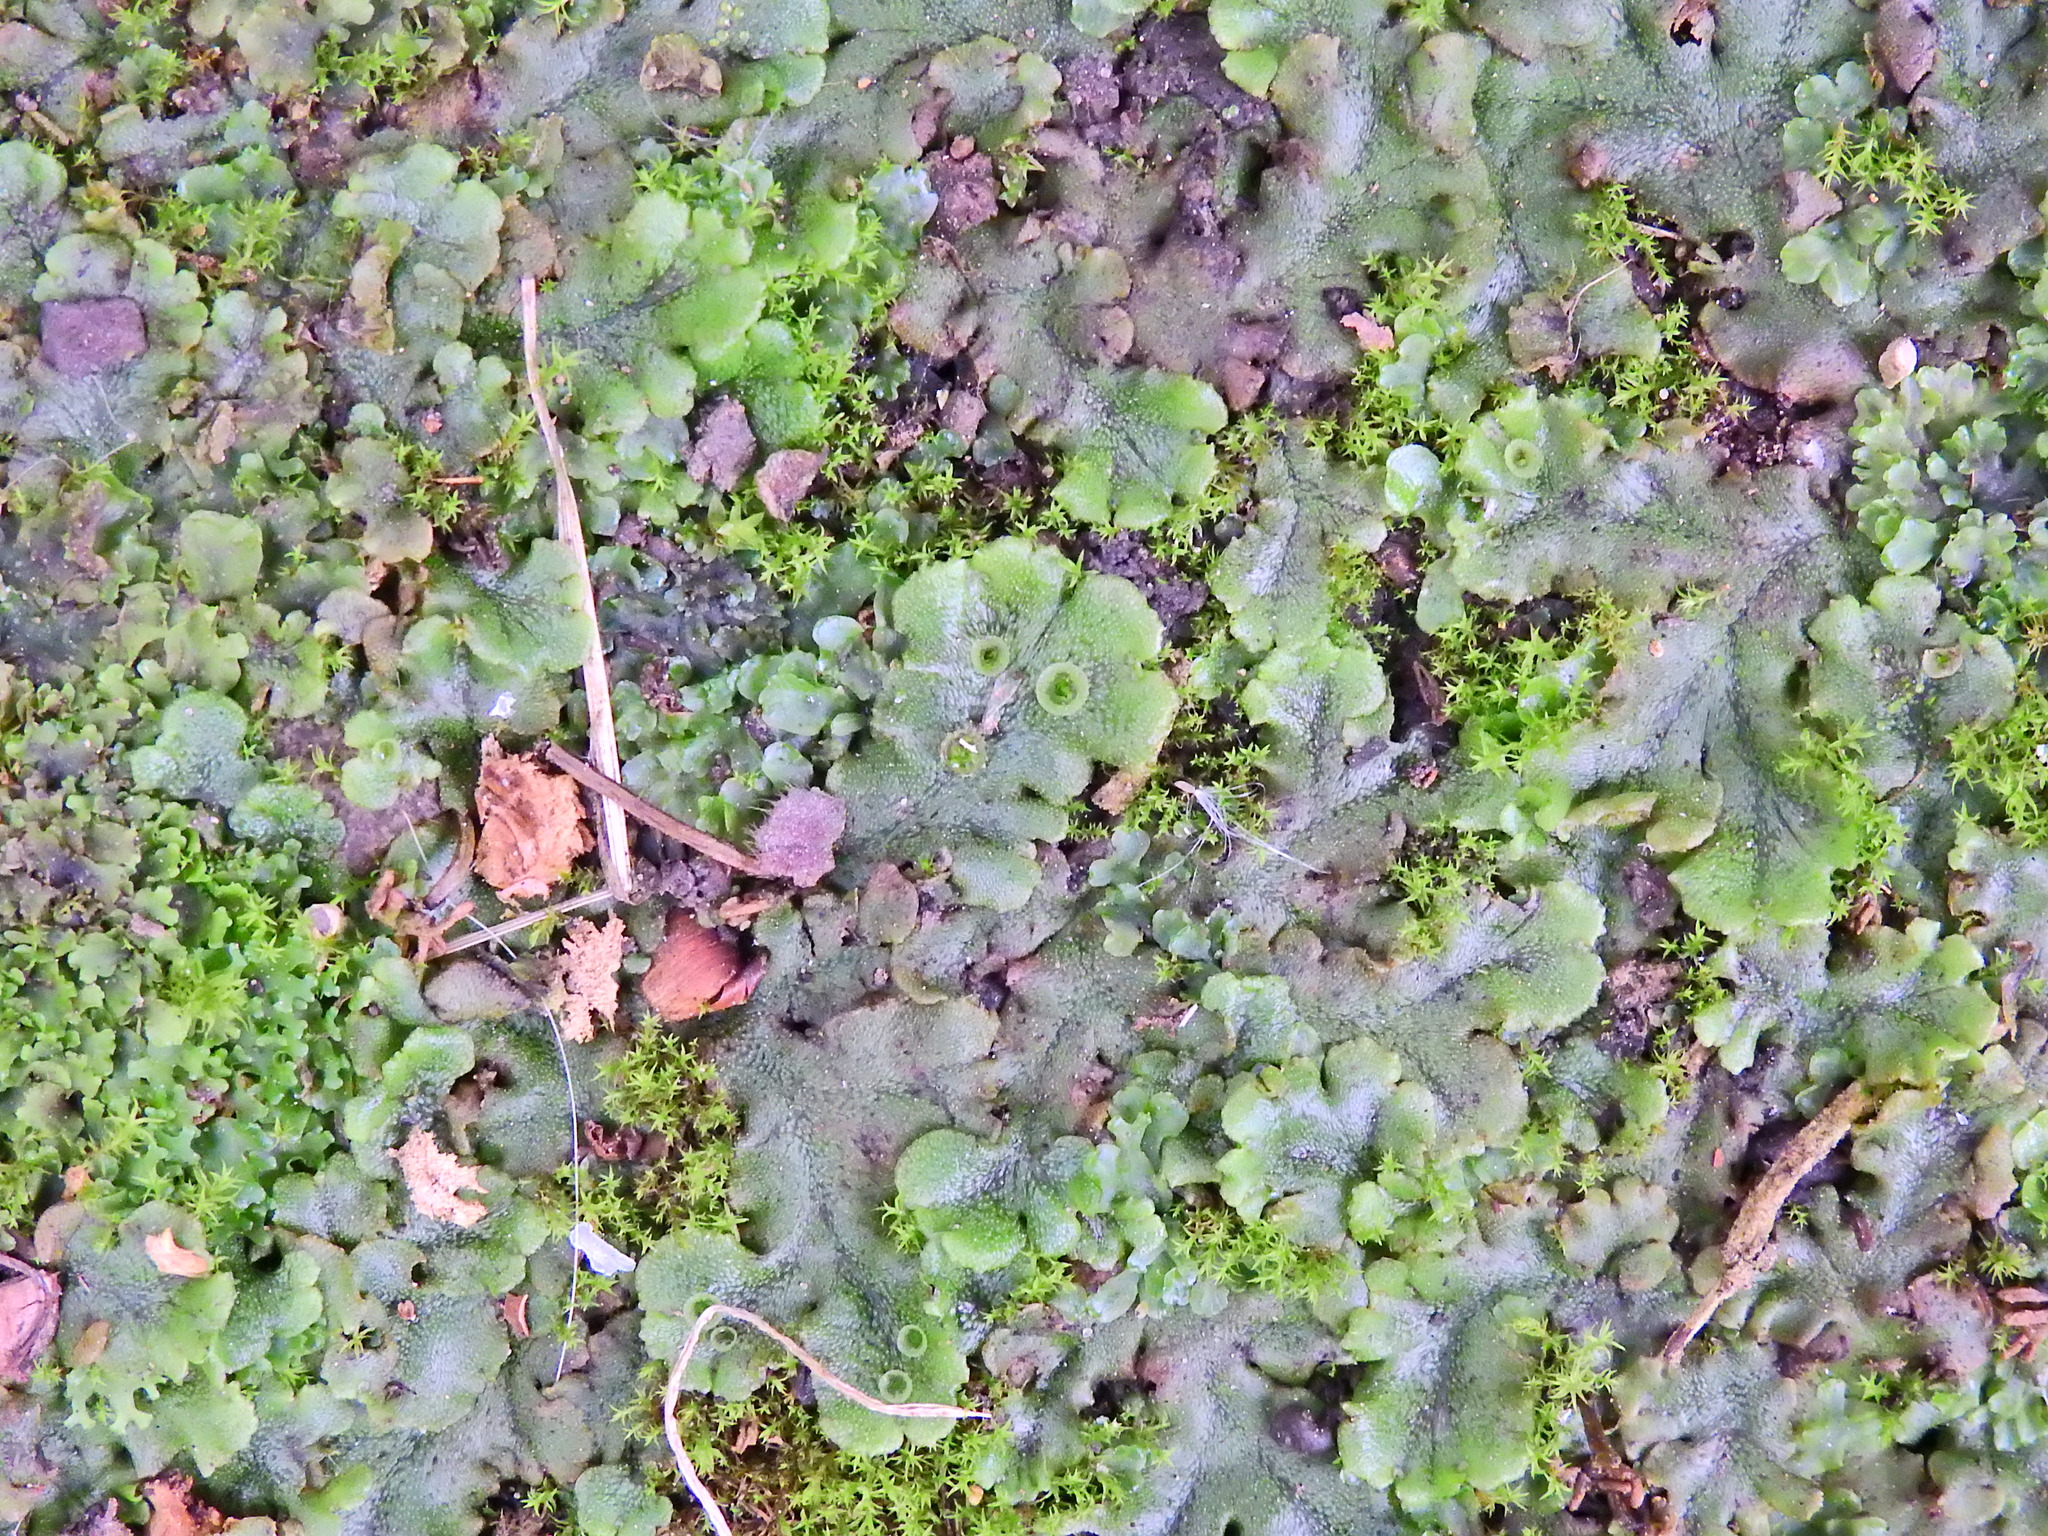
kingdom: Plantae
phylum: Marchantiophyta
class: Marchantiopsida
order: Marchantiales
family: Marchantiaceae
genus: Marchantia
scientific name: Marchantia polymorpha
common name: Common liverwort
